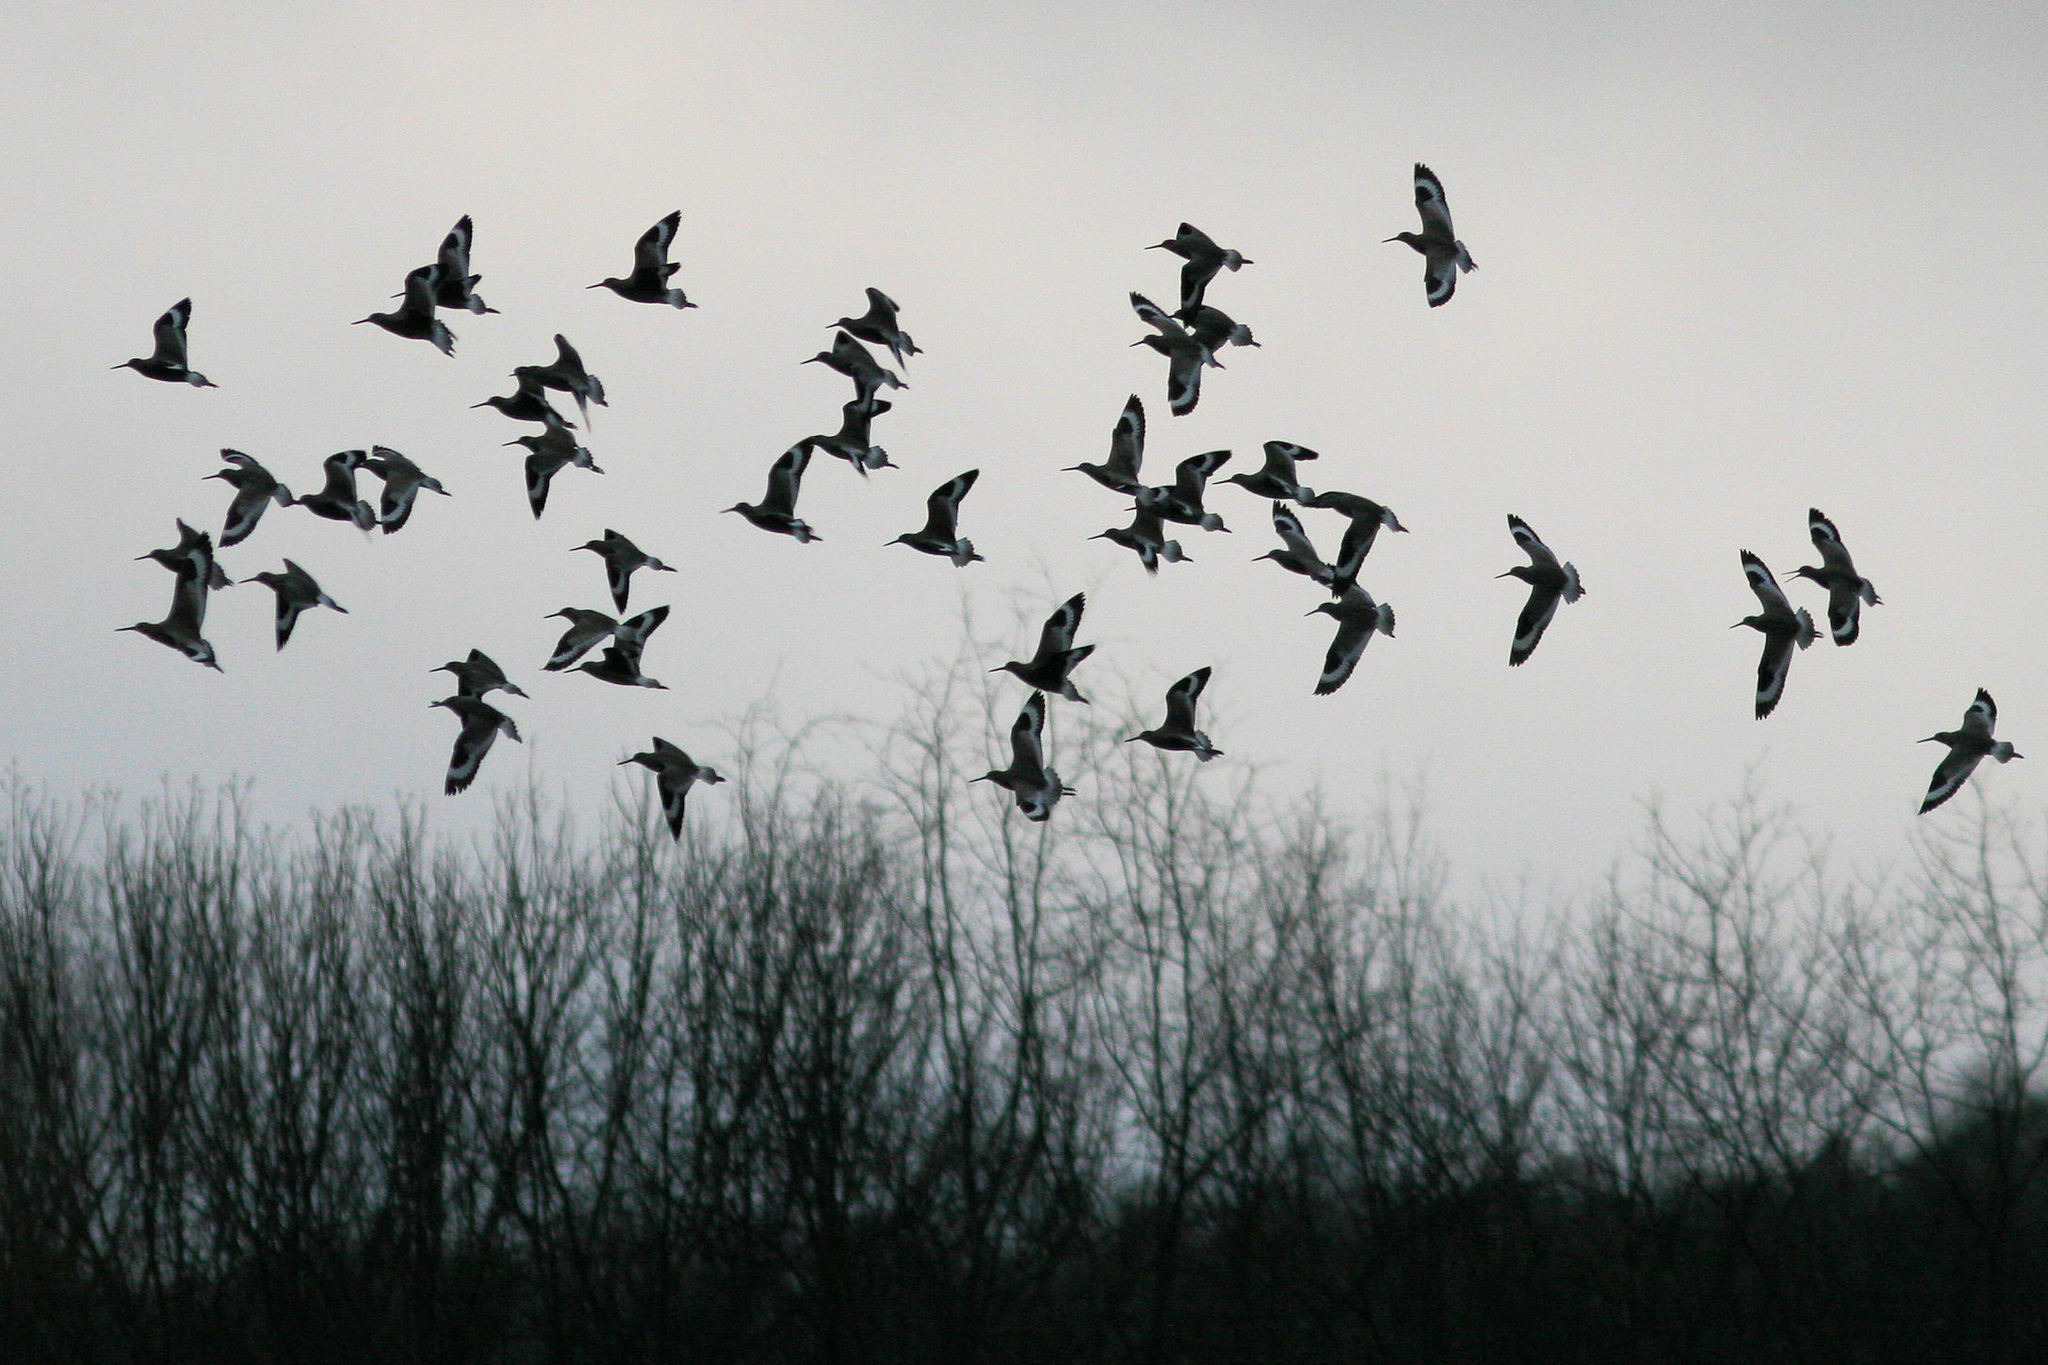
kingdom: Animalia
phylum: Chordata
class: Aves
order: Charadriiformes
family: Scolopacidae
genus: Tringa
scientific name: Tringa semipalmata
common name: Willet
